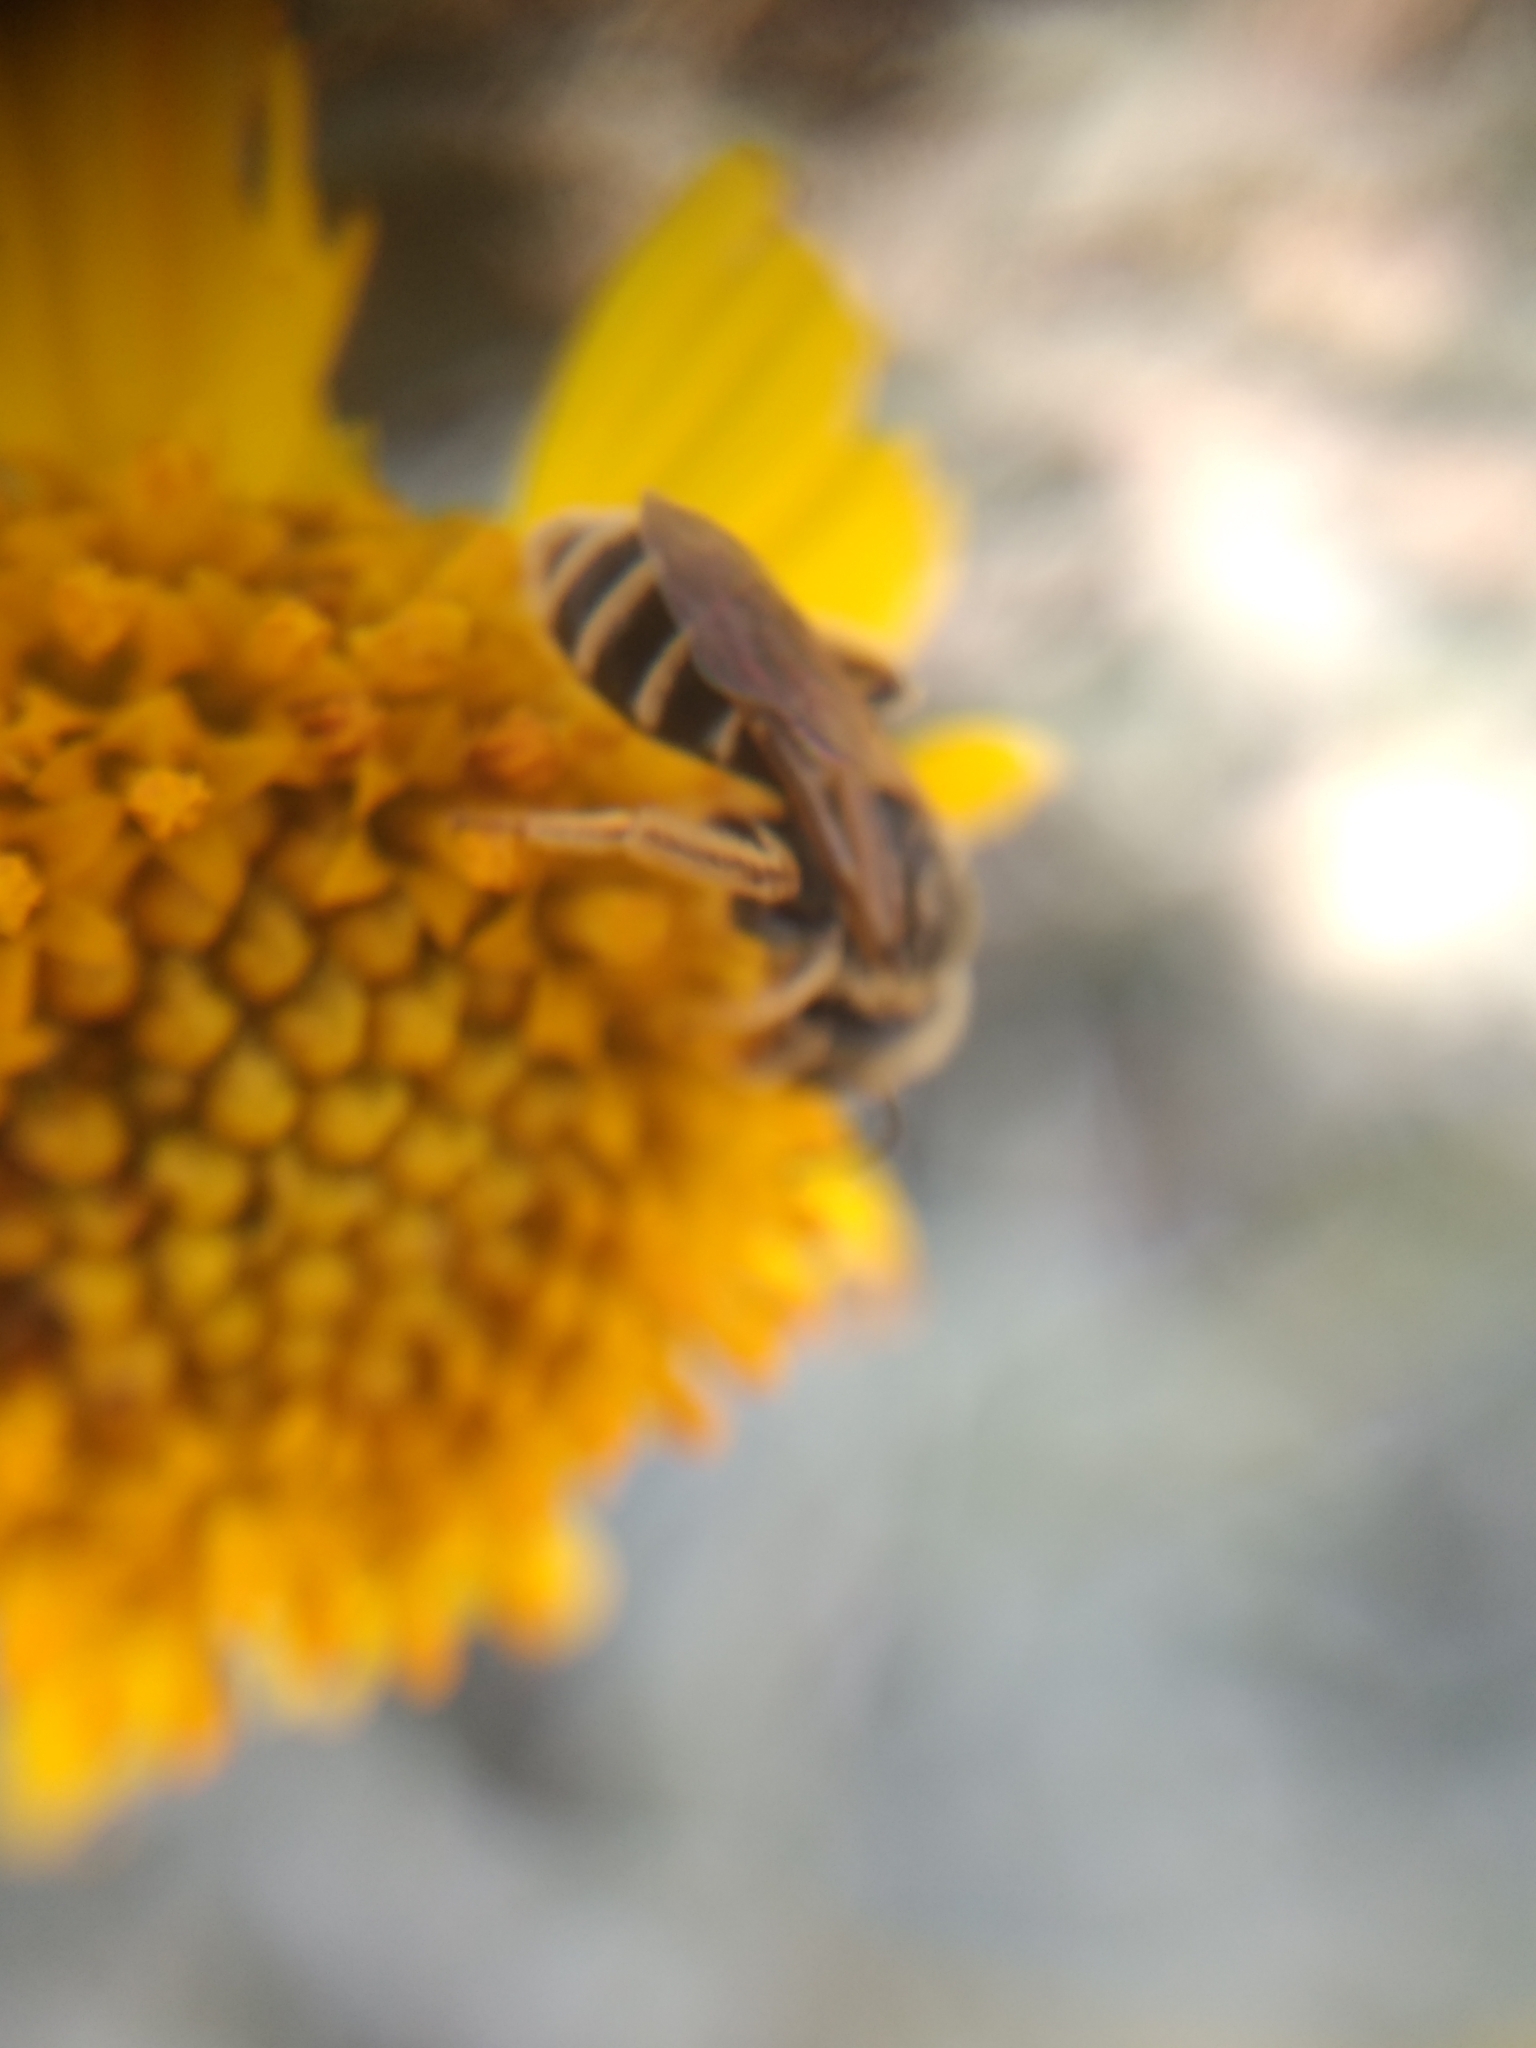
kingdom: Animalia
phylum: Arthropoda
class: Insecta
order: Hymenoptera
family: Halictidae
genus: Halictus
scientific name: Halictus ligatus
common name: Ligated furrow bee
